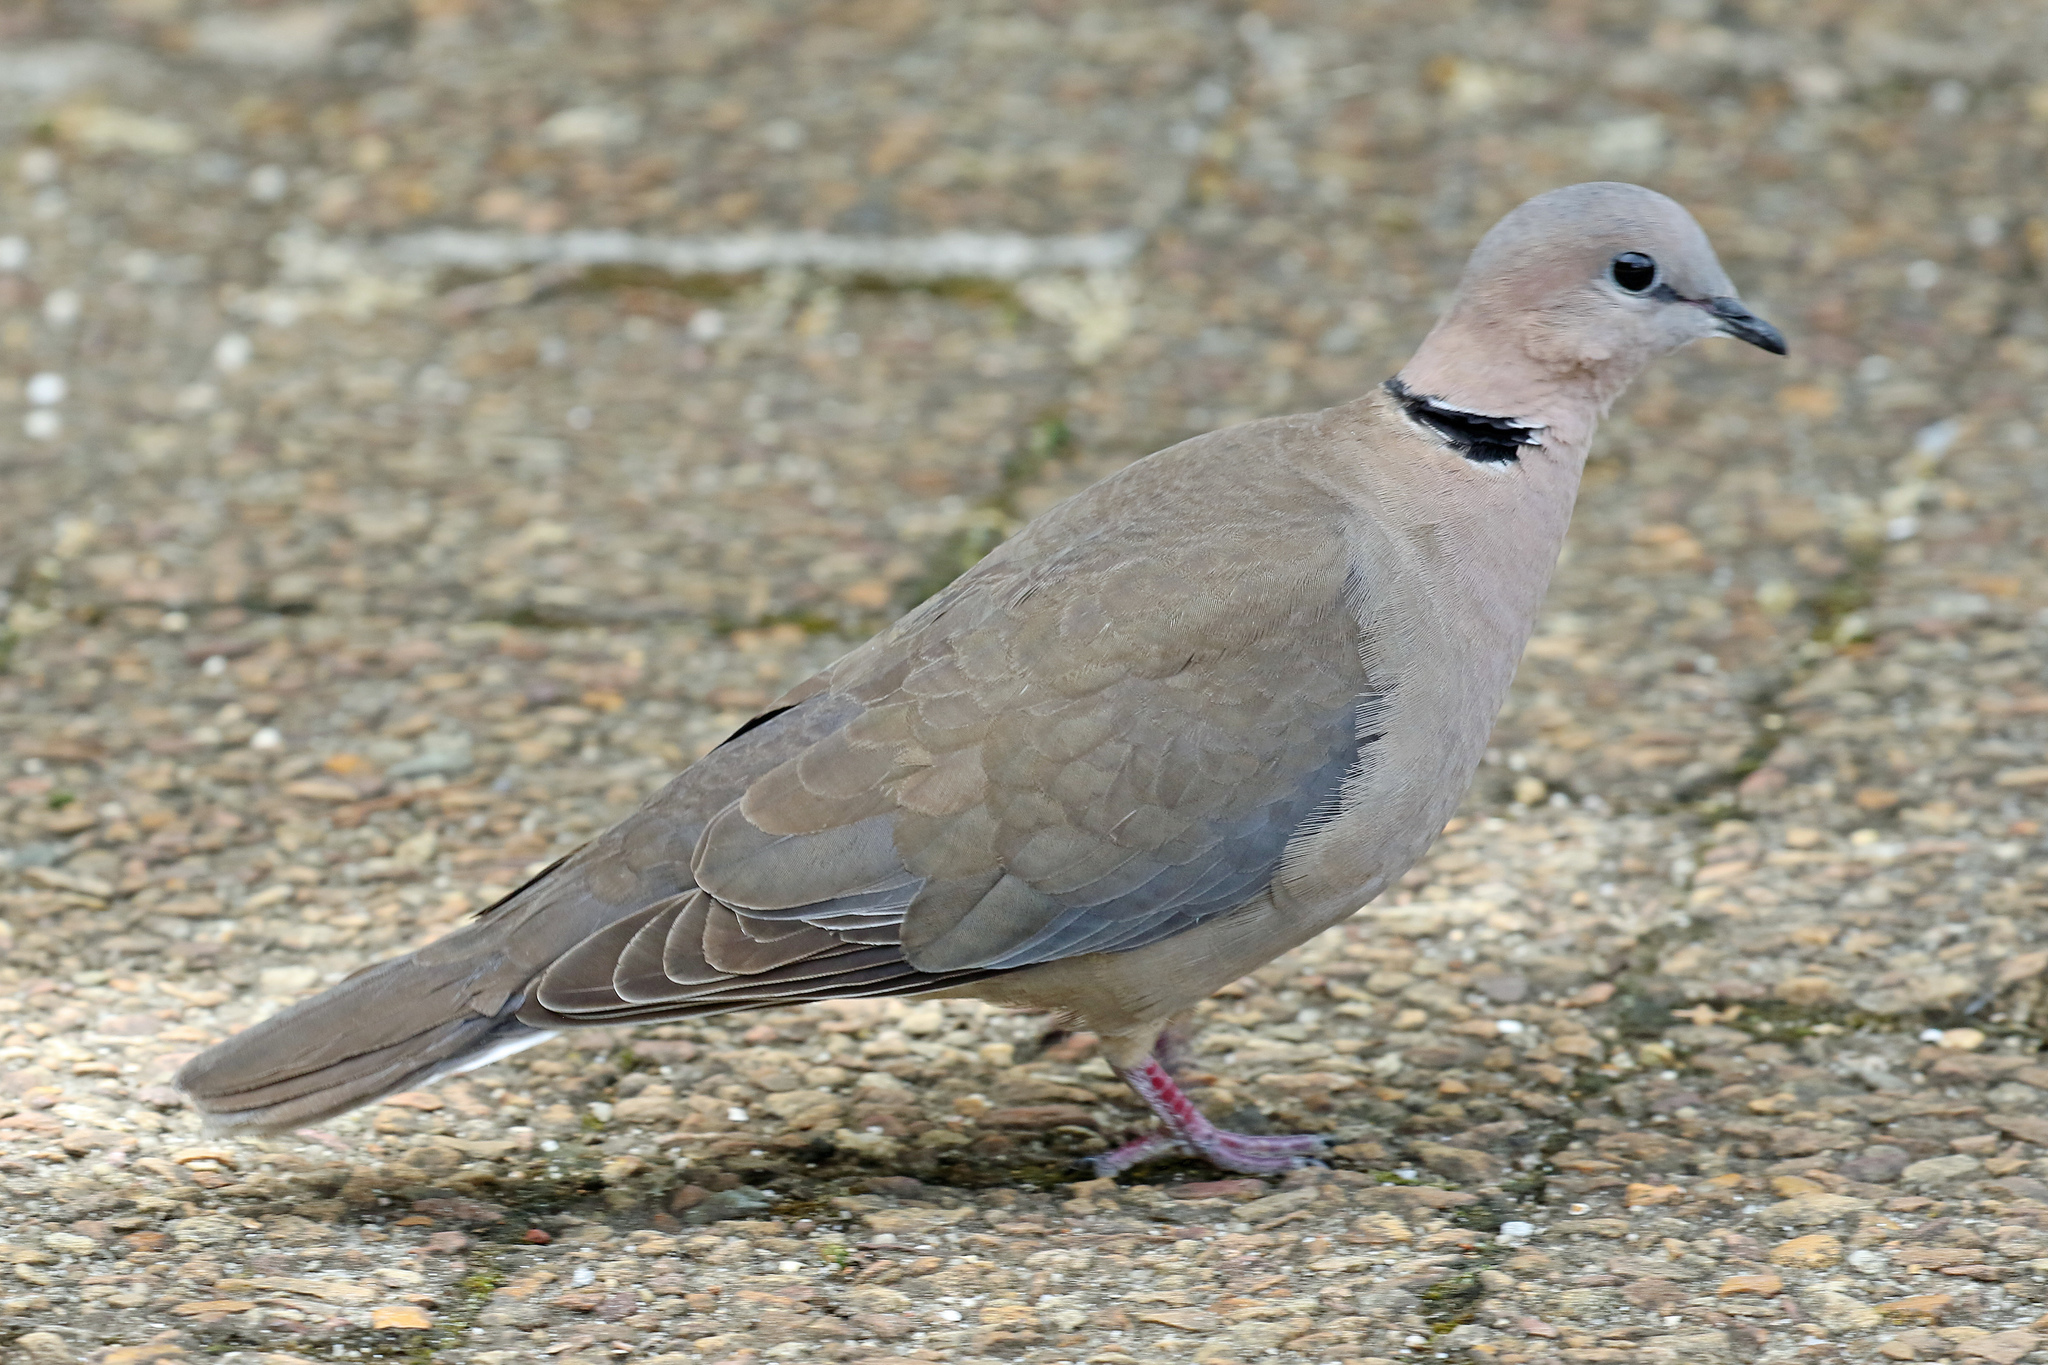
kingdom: Animalia
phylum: Chordata
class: Aves
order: Columbiformes
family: Columbidae
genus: Streptopelia
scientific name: Streptopelia capicola
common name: Ring-necked dove
